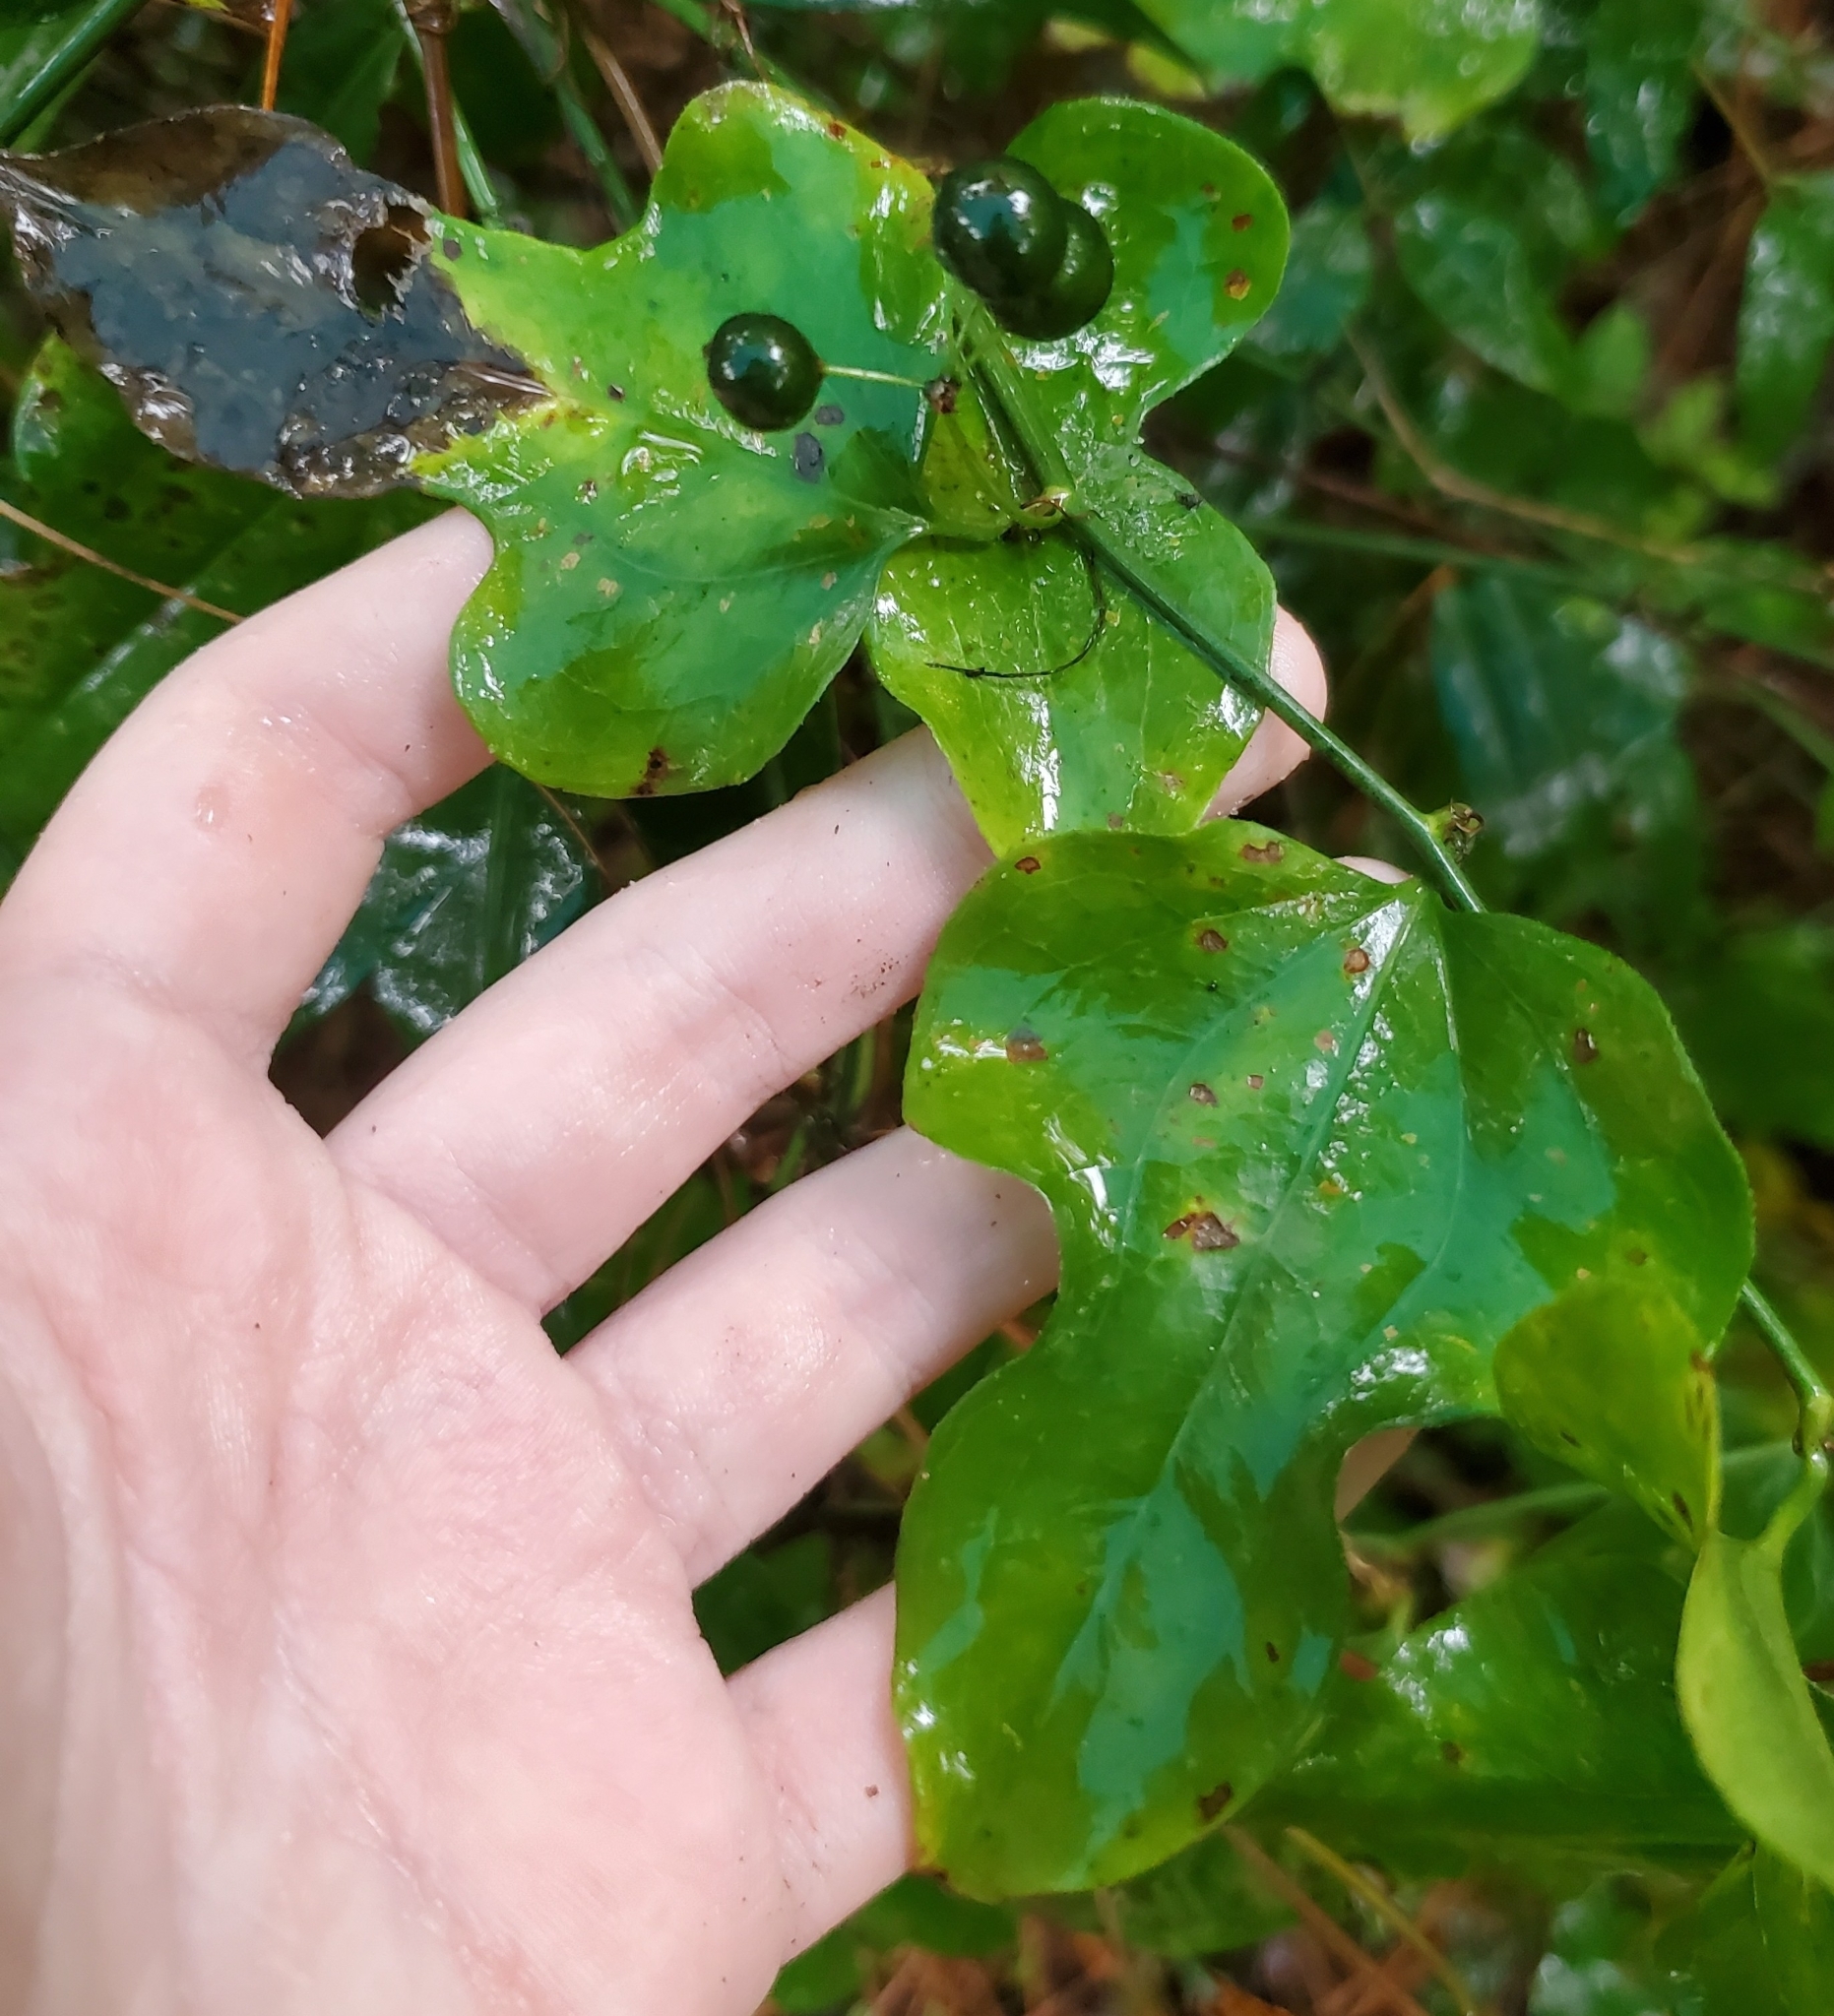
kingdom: Plantae
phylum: Tracheophyta
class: Liliopsida
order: Liliales
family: Smilacaceae
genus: Smilax
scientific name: Smilax tamnoides
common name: Hellfetter
